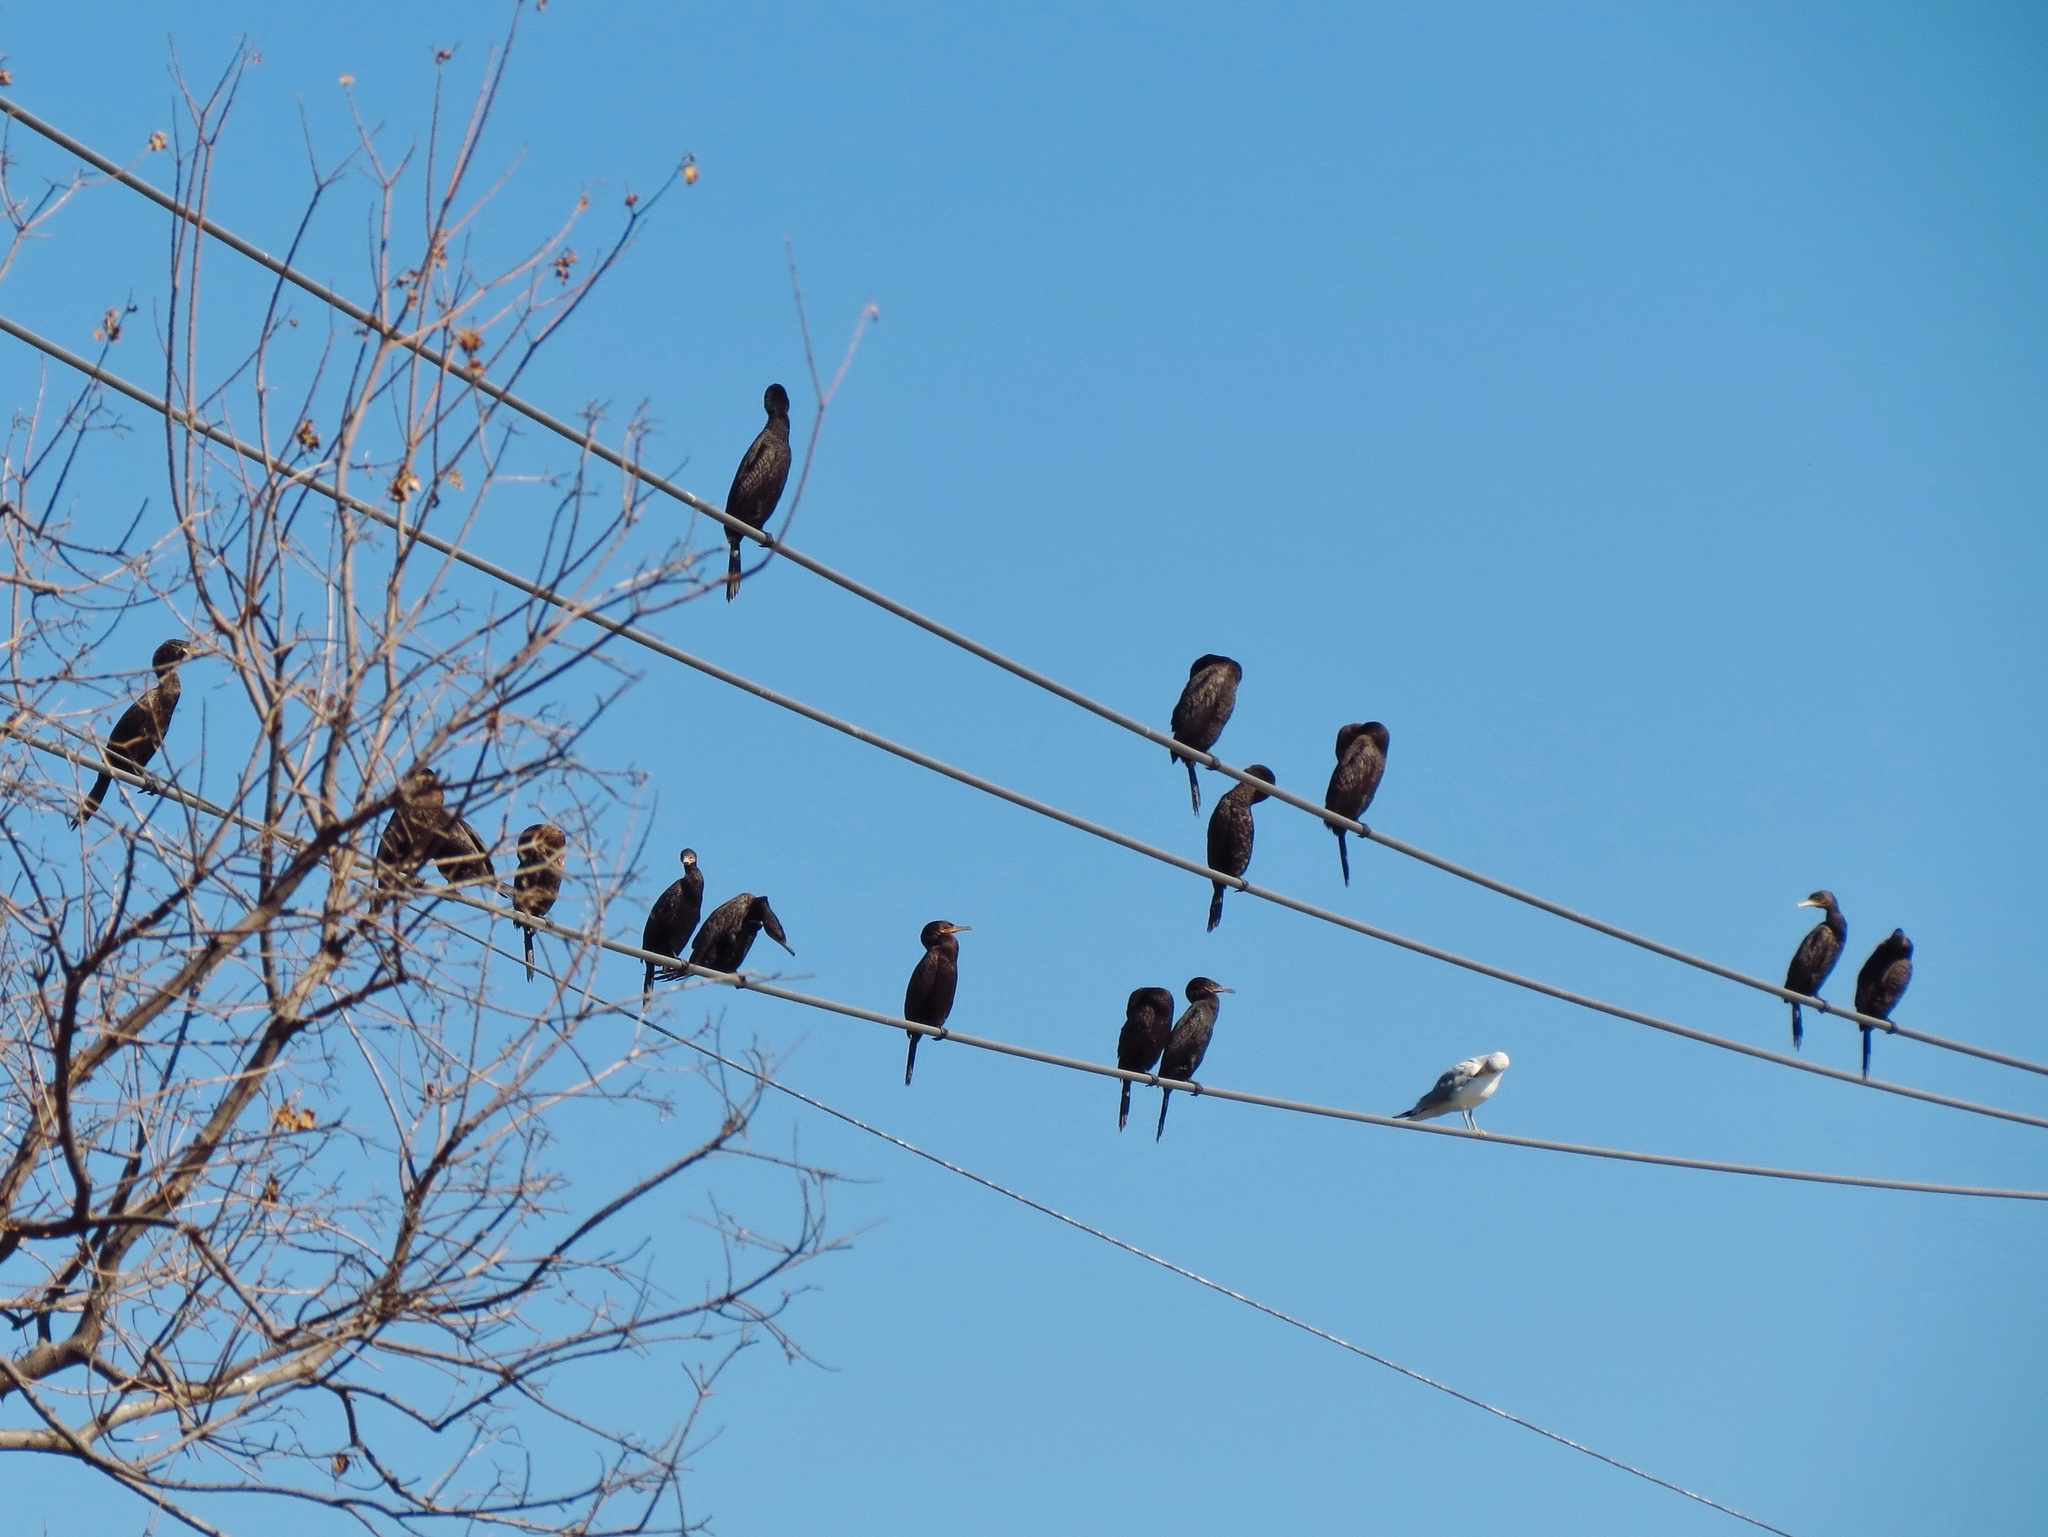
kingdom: Animalia
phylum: Chordata
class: Aves
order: Suliformes
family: Phalacrocoracidae
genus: Phalacrocorax
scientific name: Phalacrocorax brasilianus
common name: Neotropic cormorant
